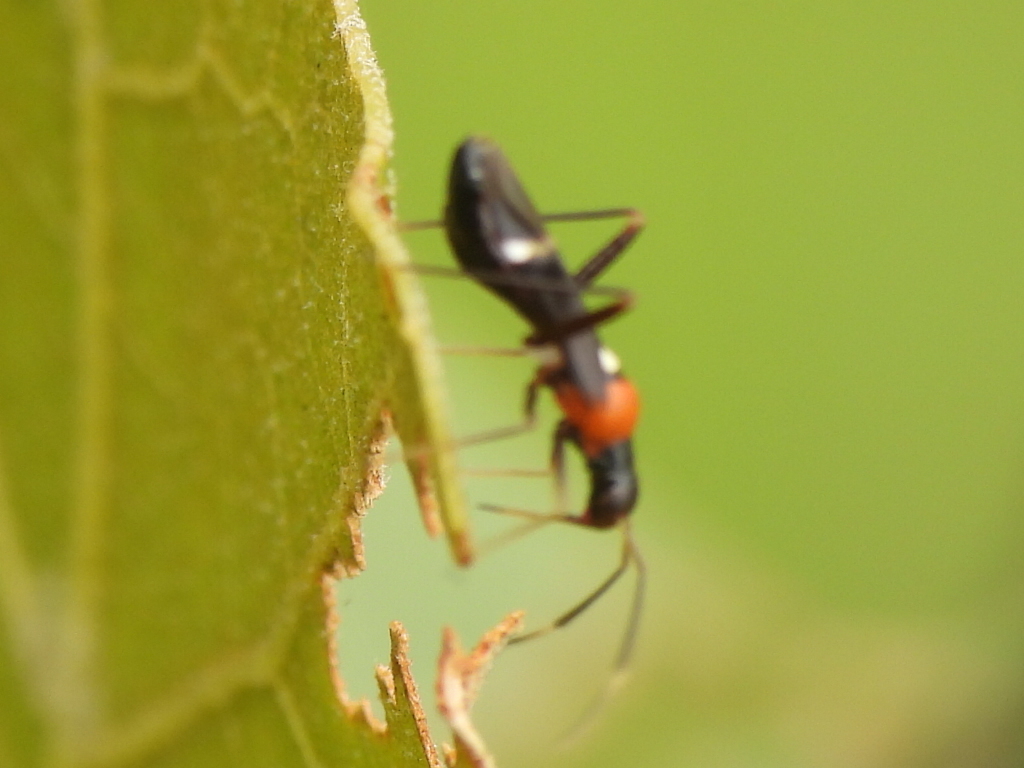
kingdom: Animalia
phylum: Arthropoda
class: Insecta
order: Hemiptera
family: Miridae
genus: Pseudoxenetus
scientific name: Pseudoxenetus regalis
